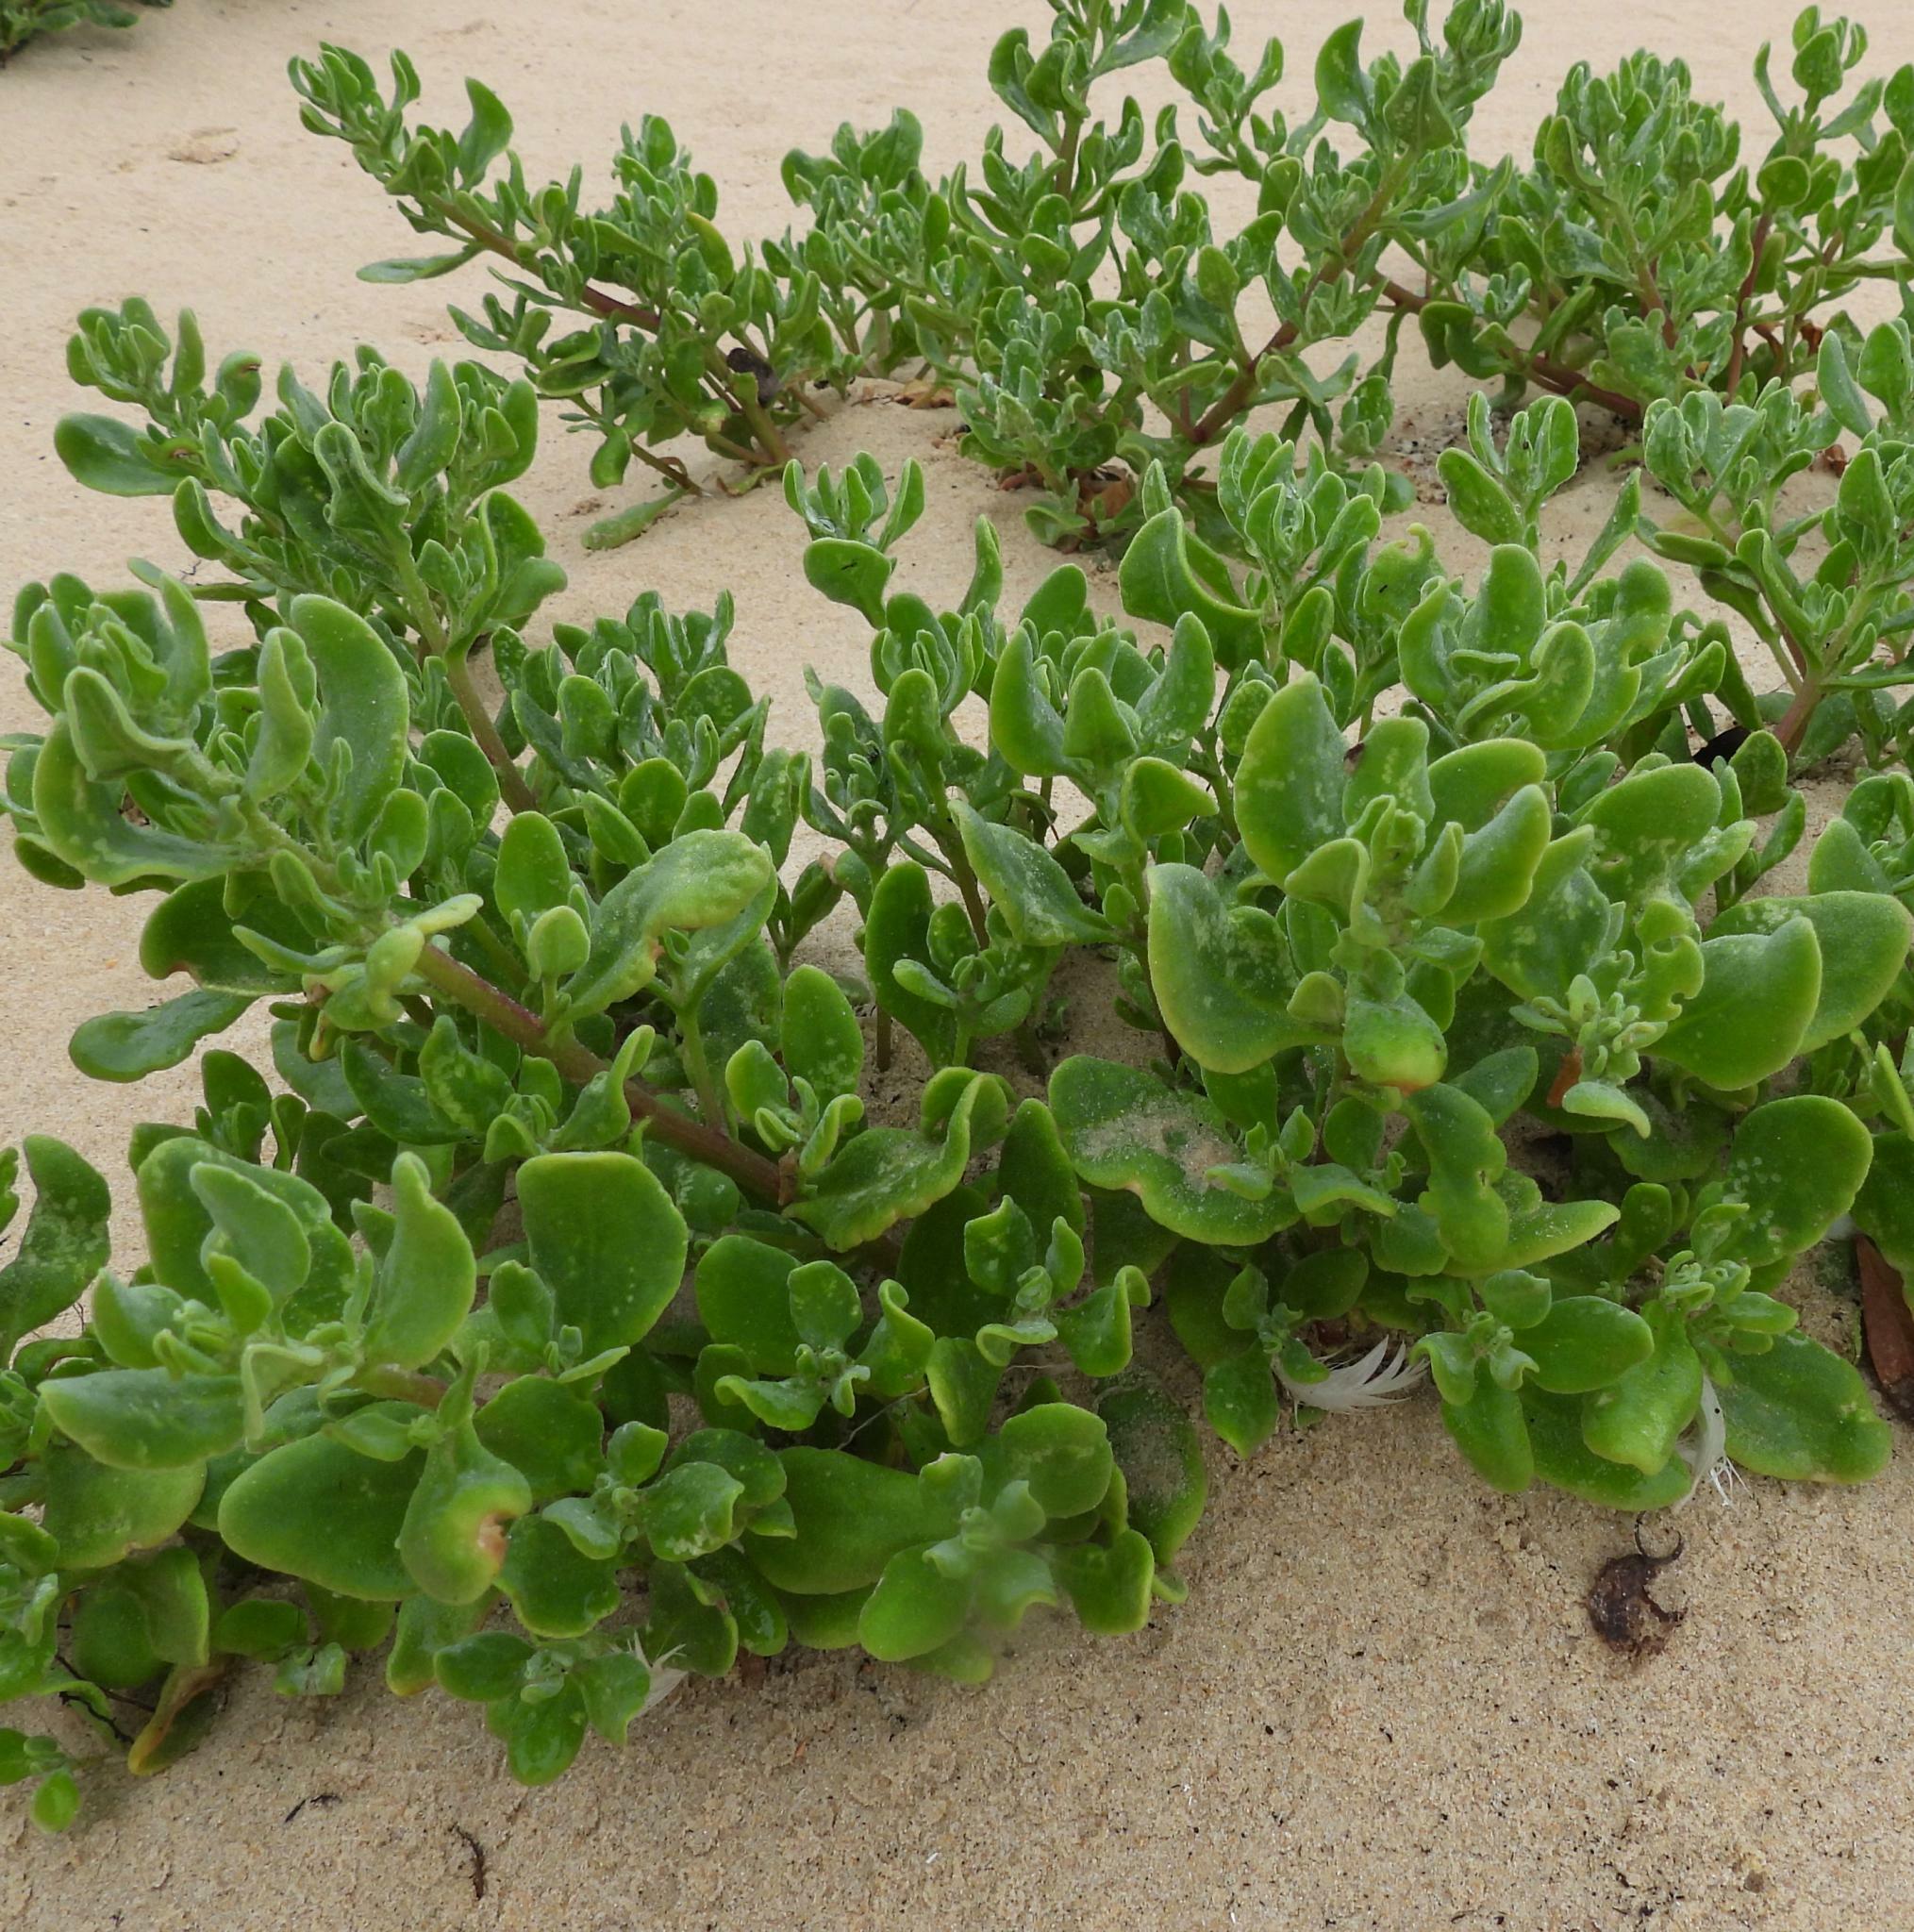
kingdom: Plantae
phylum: Tracheophyta
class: Magnoliopsida
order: Caryophyllales
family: Aizoaceae
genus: Tetragonia
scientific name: Tetragonia decumbens
